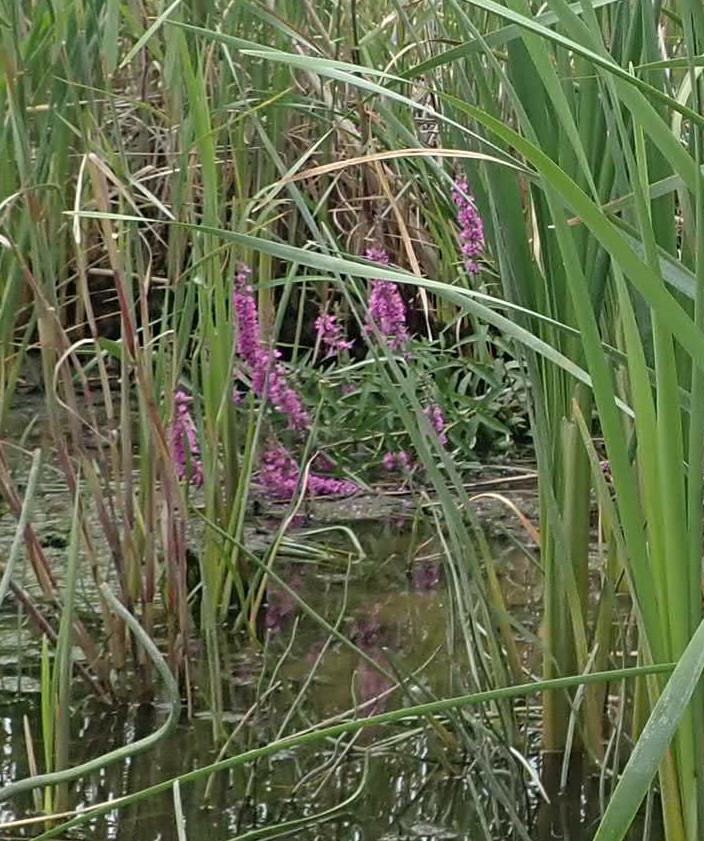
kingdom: Plantae
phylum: Tracheophyta
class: Magnoliopsida
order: Myrtales
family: Lythraceae
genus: Lythrum
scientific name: Lythrum salicaria
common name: Purple loosestrife
